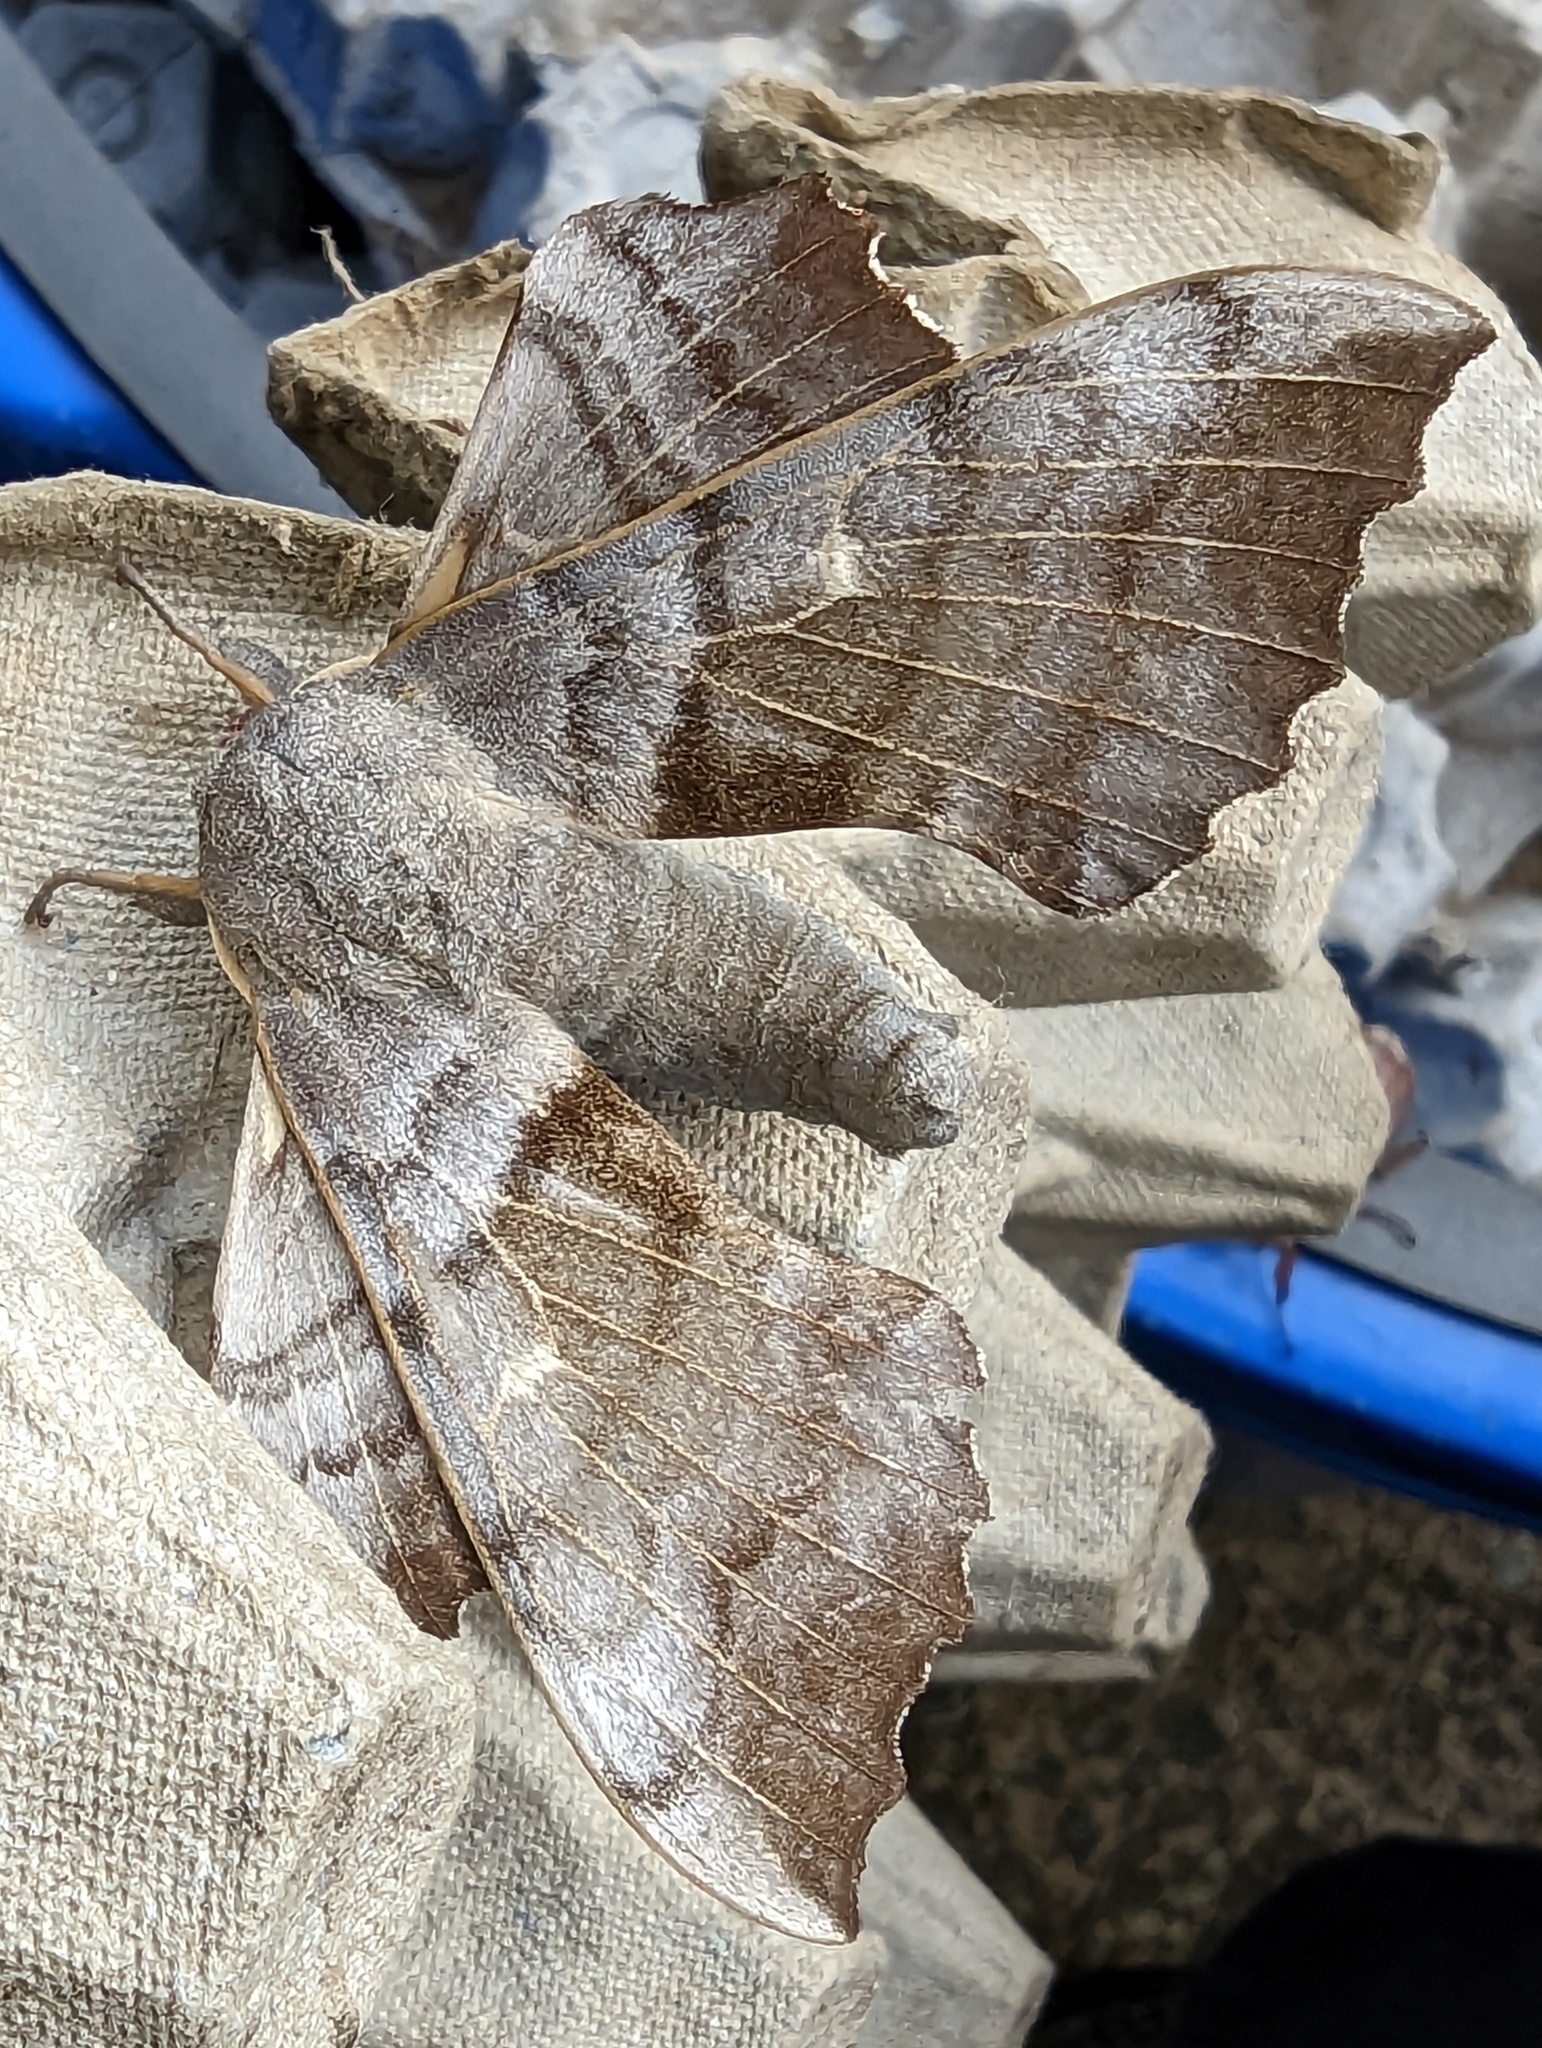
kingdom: Animalia
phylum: Arthropoda
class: Insecta
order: Lepidoptera
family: Sphingidae
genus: Laothoe
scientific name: Laothoe populi
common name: Poplar hawk-moth
